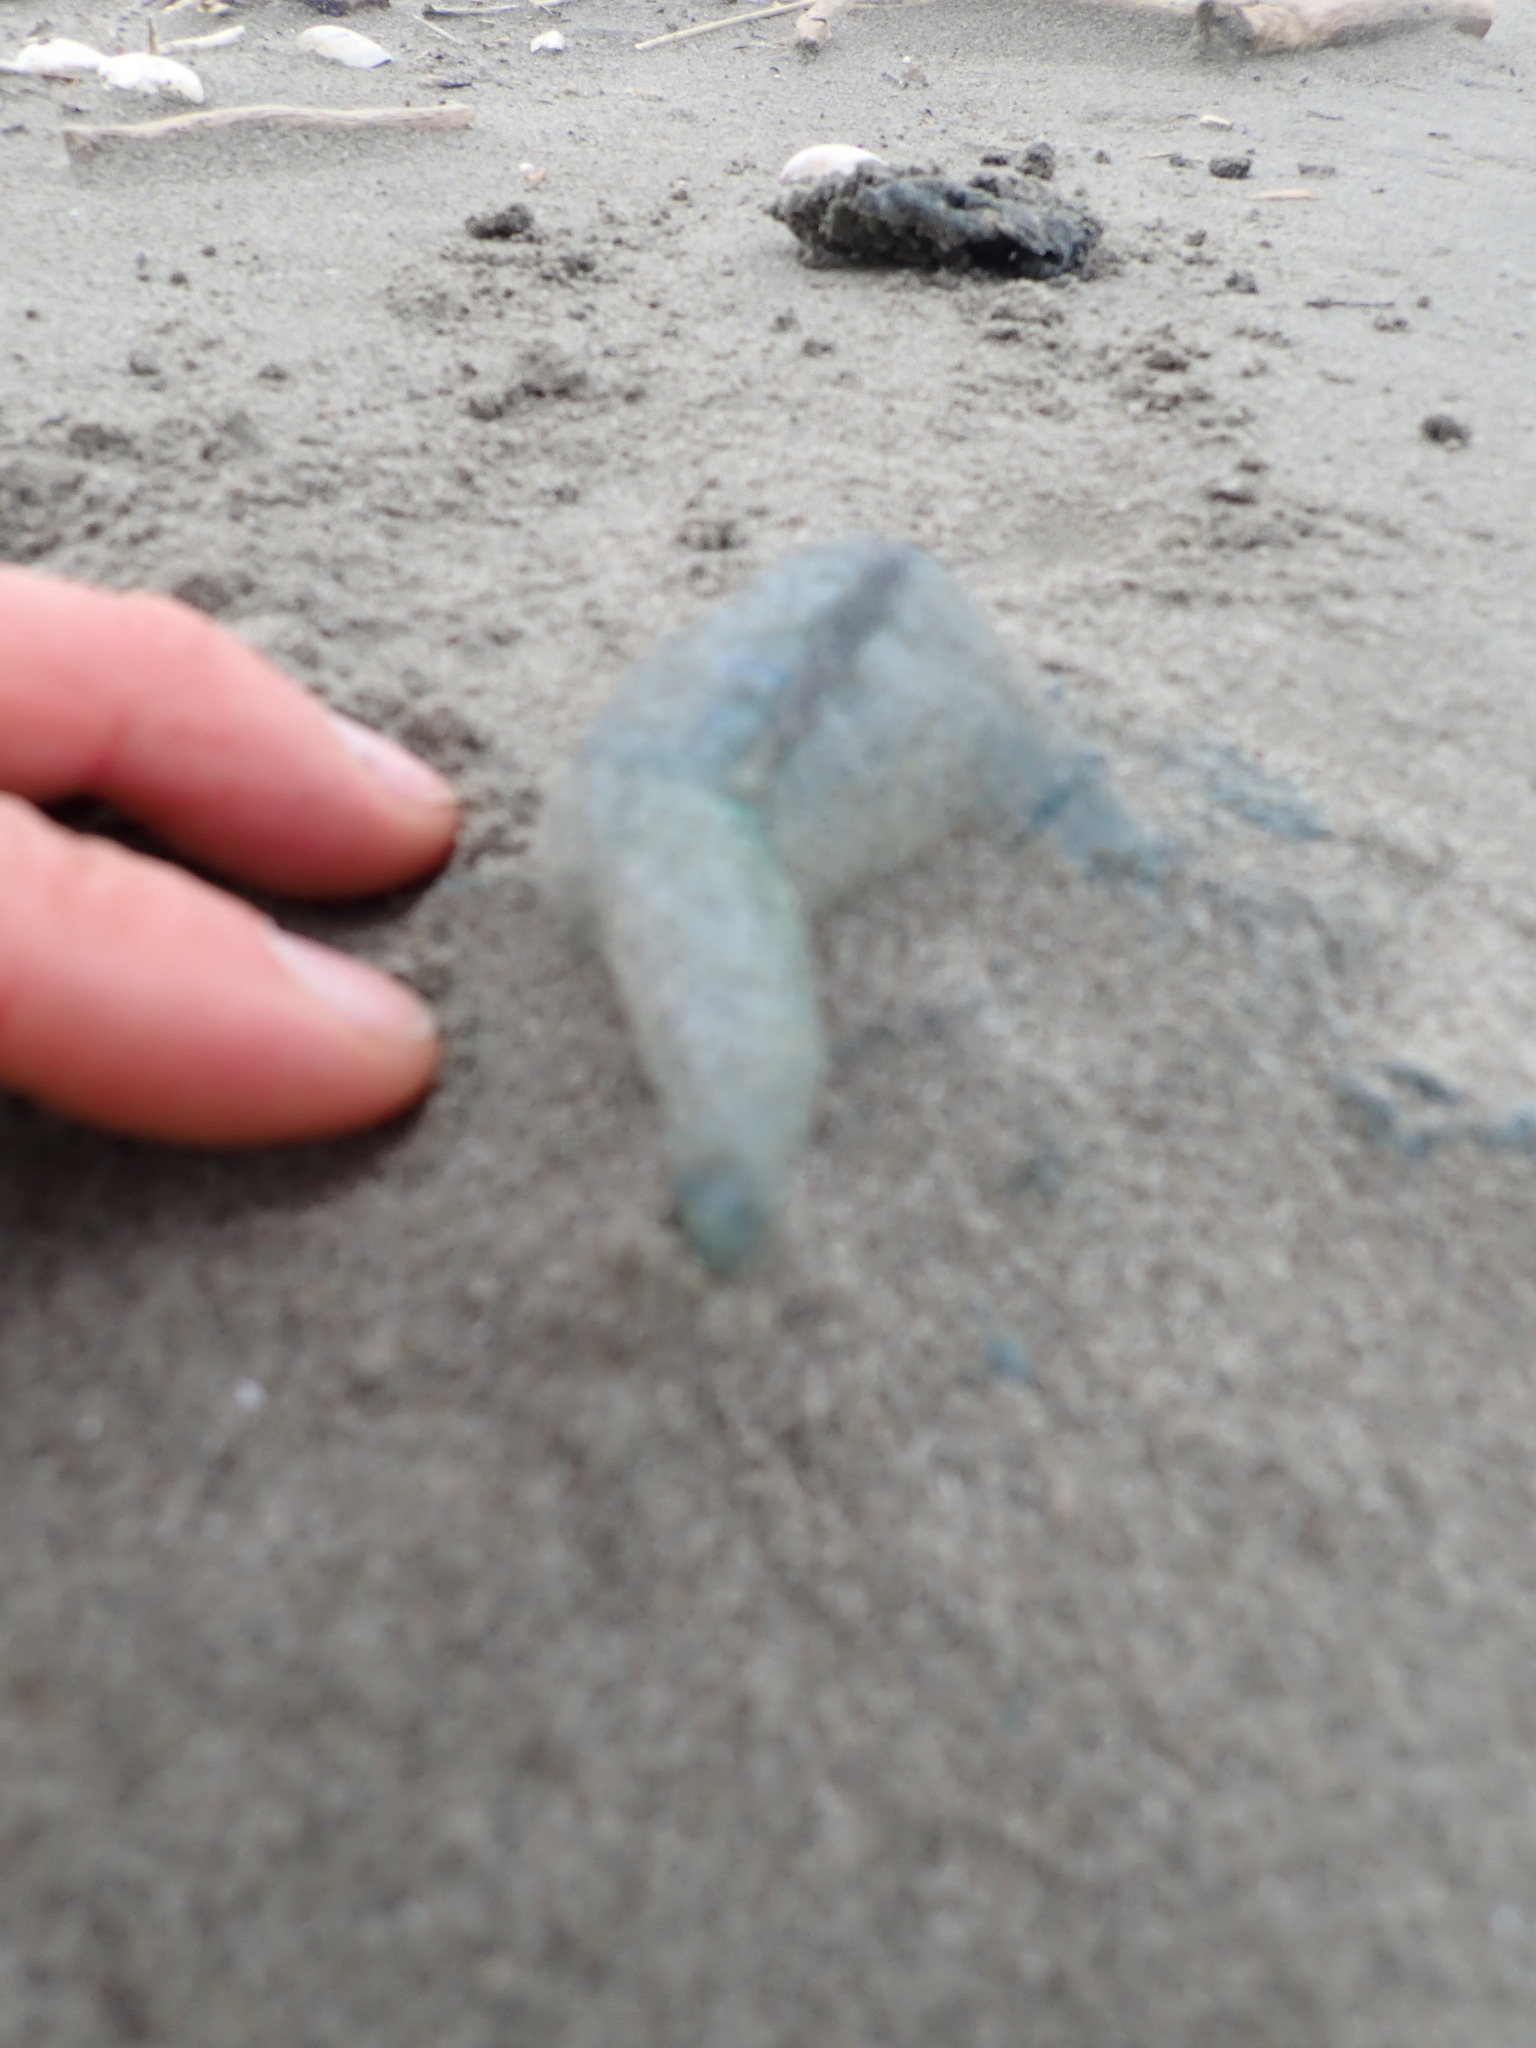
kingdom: Animalia
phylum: Cnidaria
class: Hydrozoa
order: Siphonophorae
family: Physaliidae
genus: Physalia
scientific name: Physalia physalis
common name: Portuguese man-of-war
